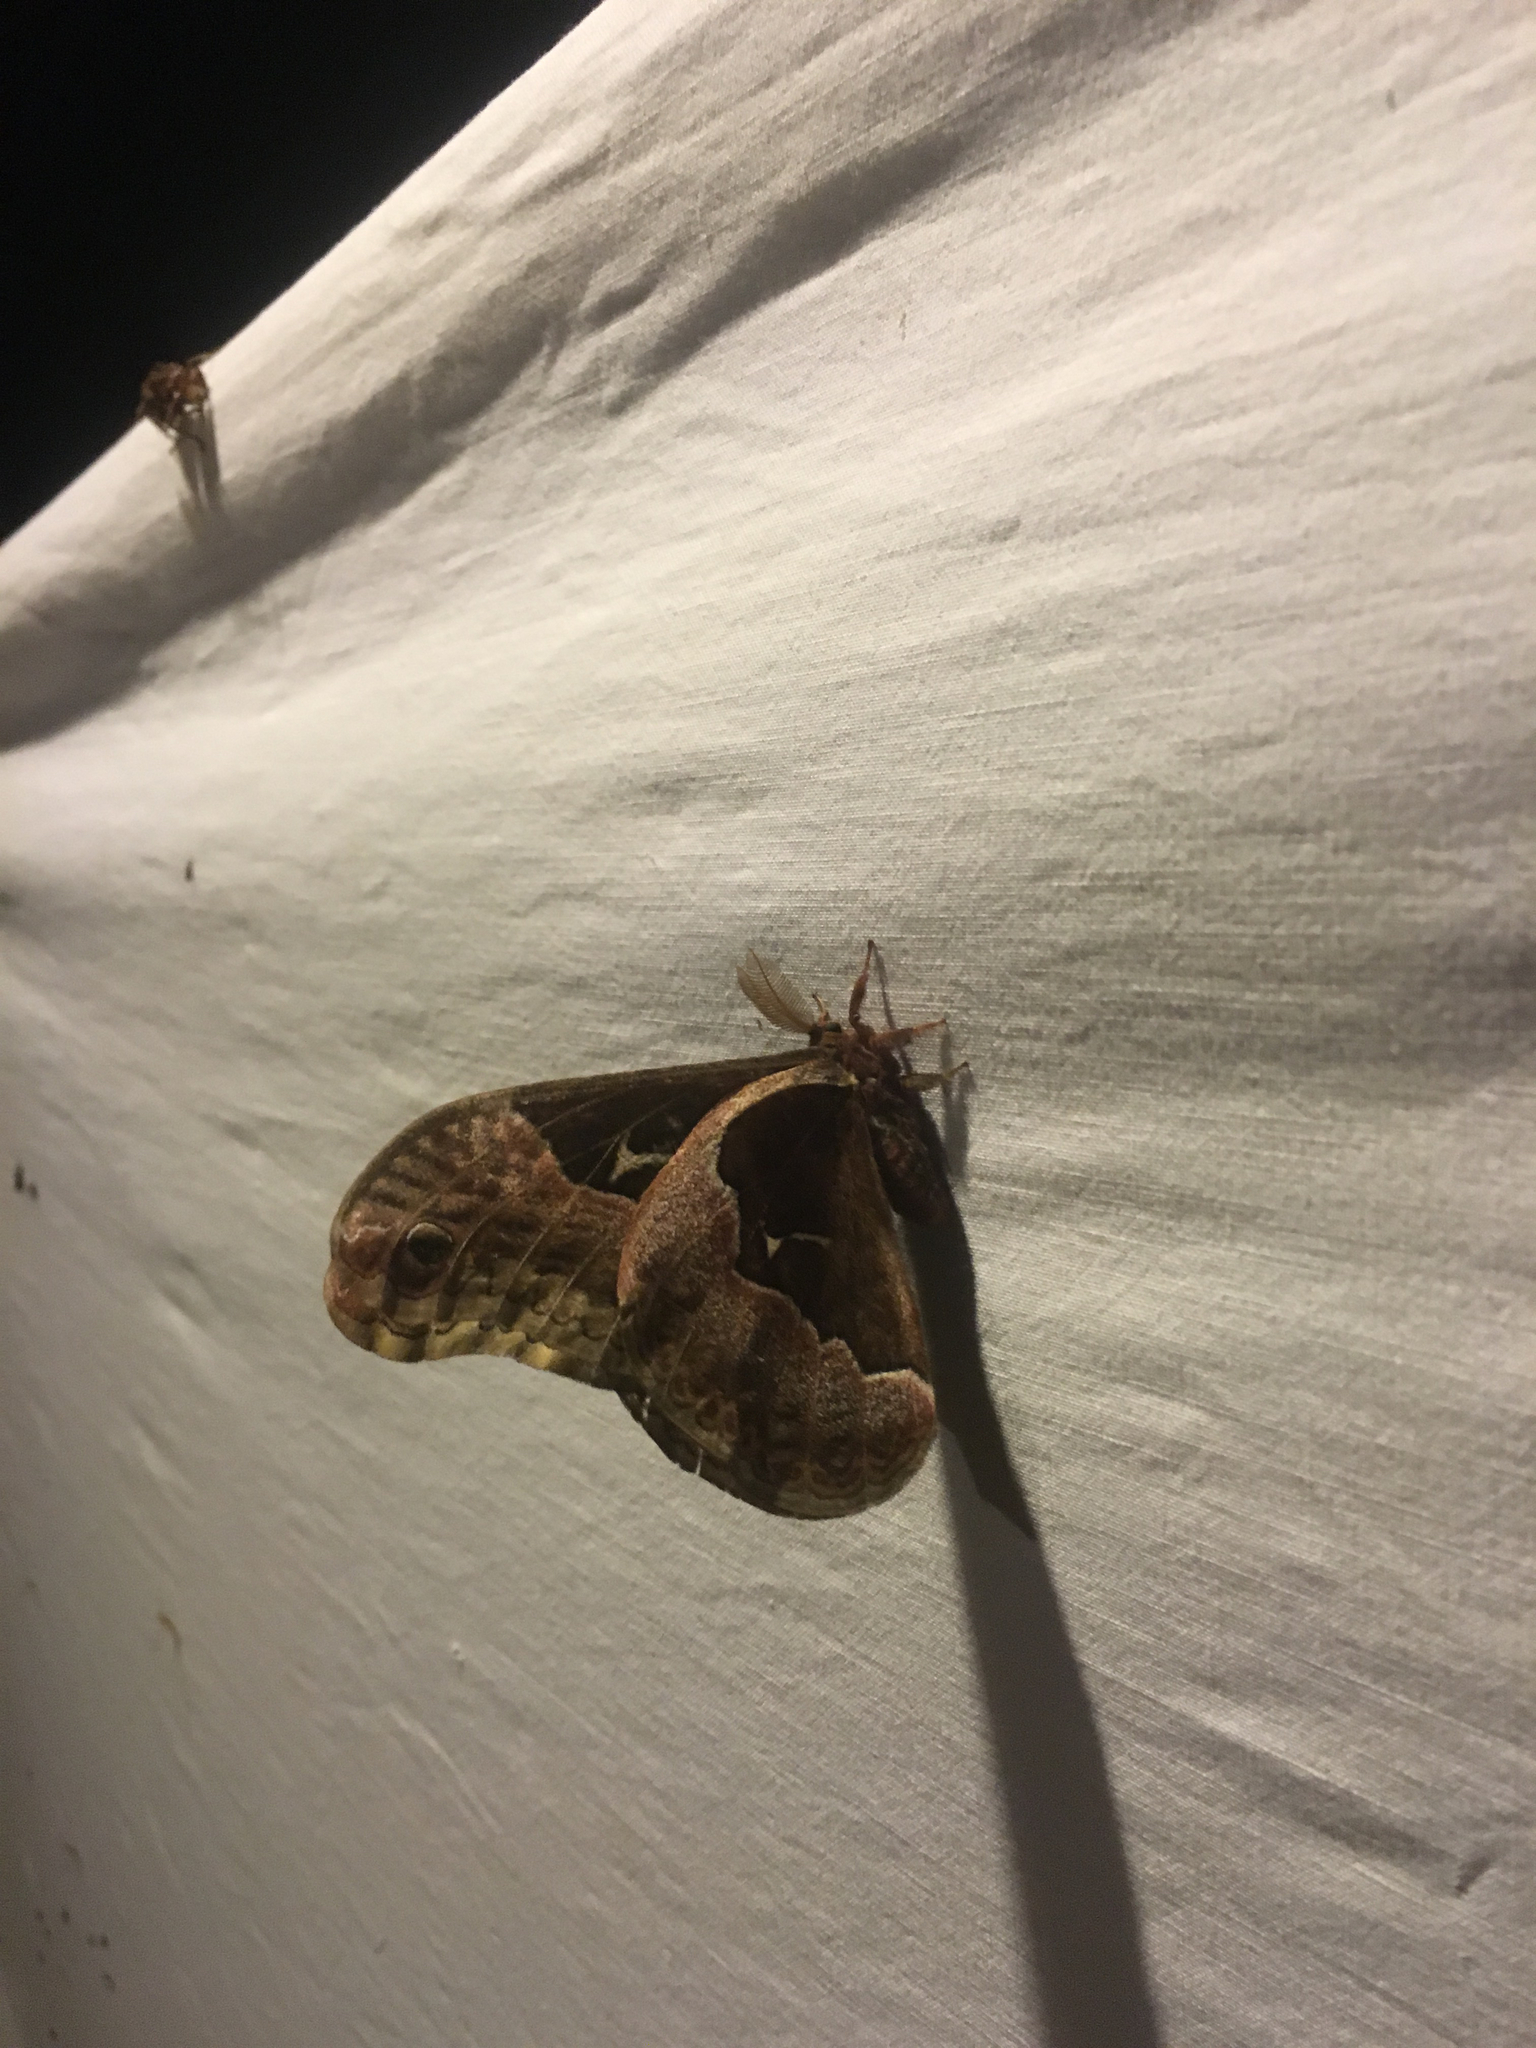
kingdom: Animalia
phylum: Arthropoda
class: Insecta
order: Lepidoptera
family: Saturniidae
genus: Callosamia
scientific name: Callosamia angulifera
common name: Tulip tree silkmoth
